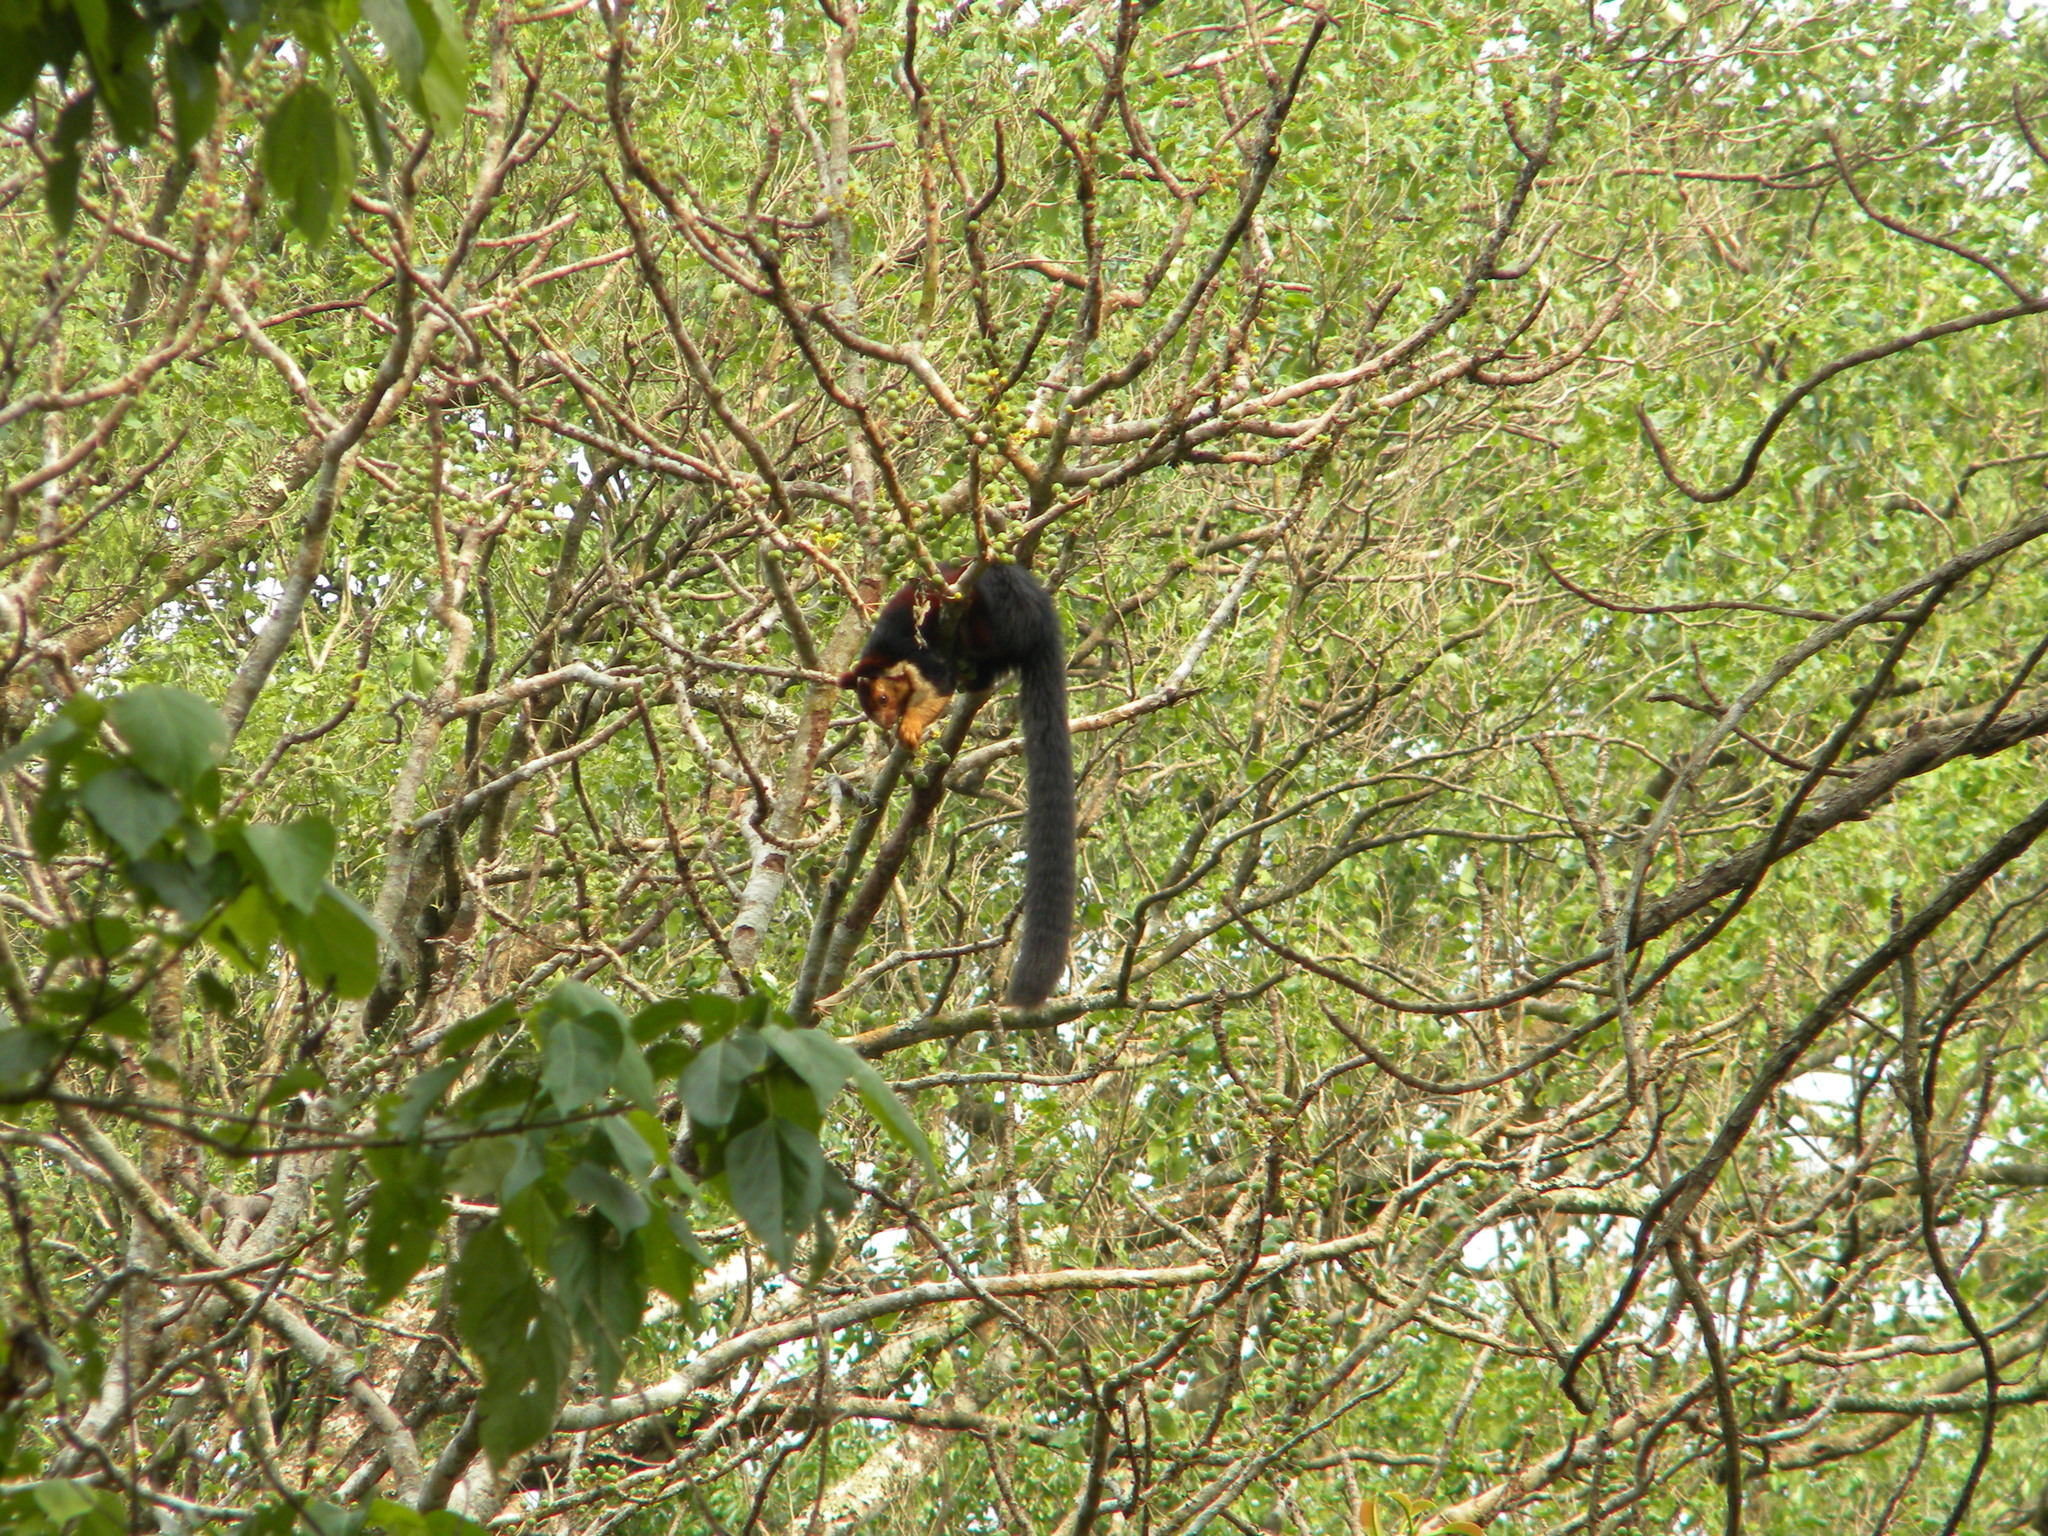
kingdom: Animalia
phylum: Chordata
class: Mammalia
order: Rodentia
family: Sciuridae
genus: Ratufa
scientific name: Ratufa indica
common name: Indian giant squirrel
